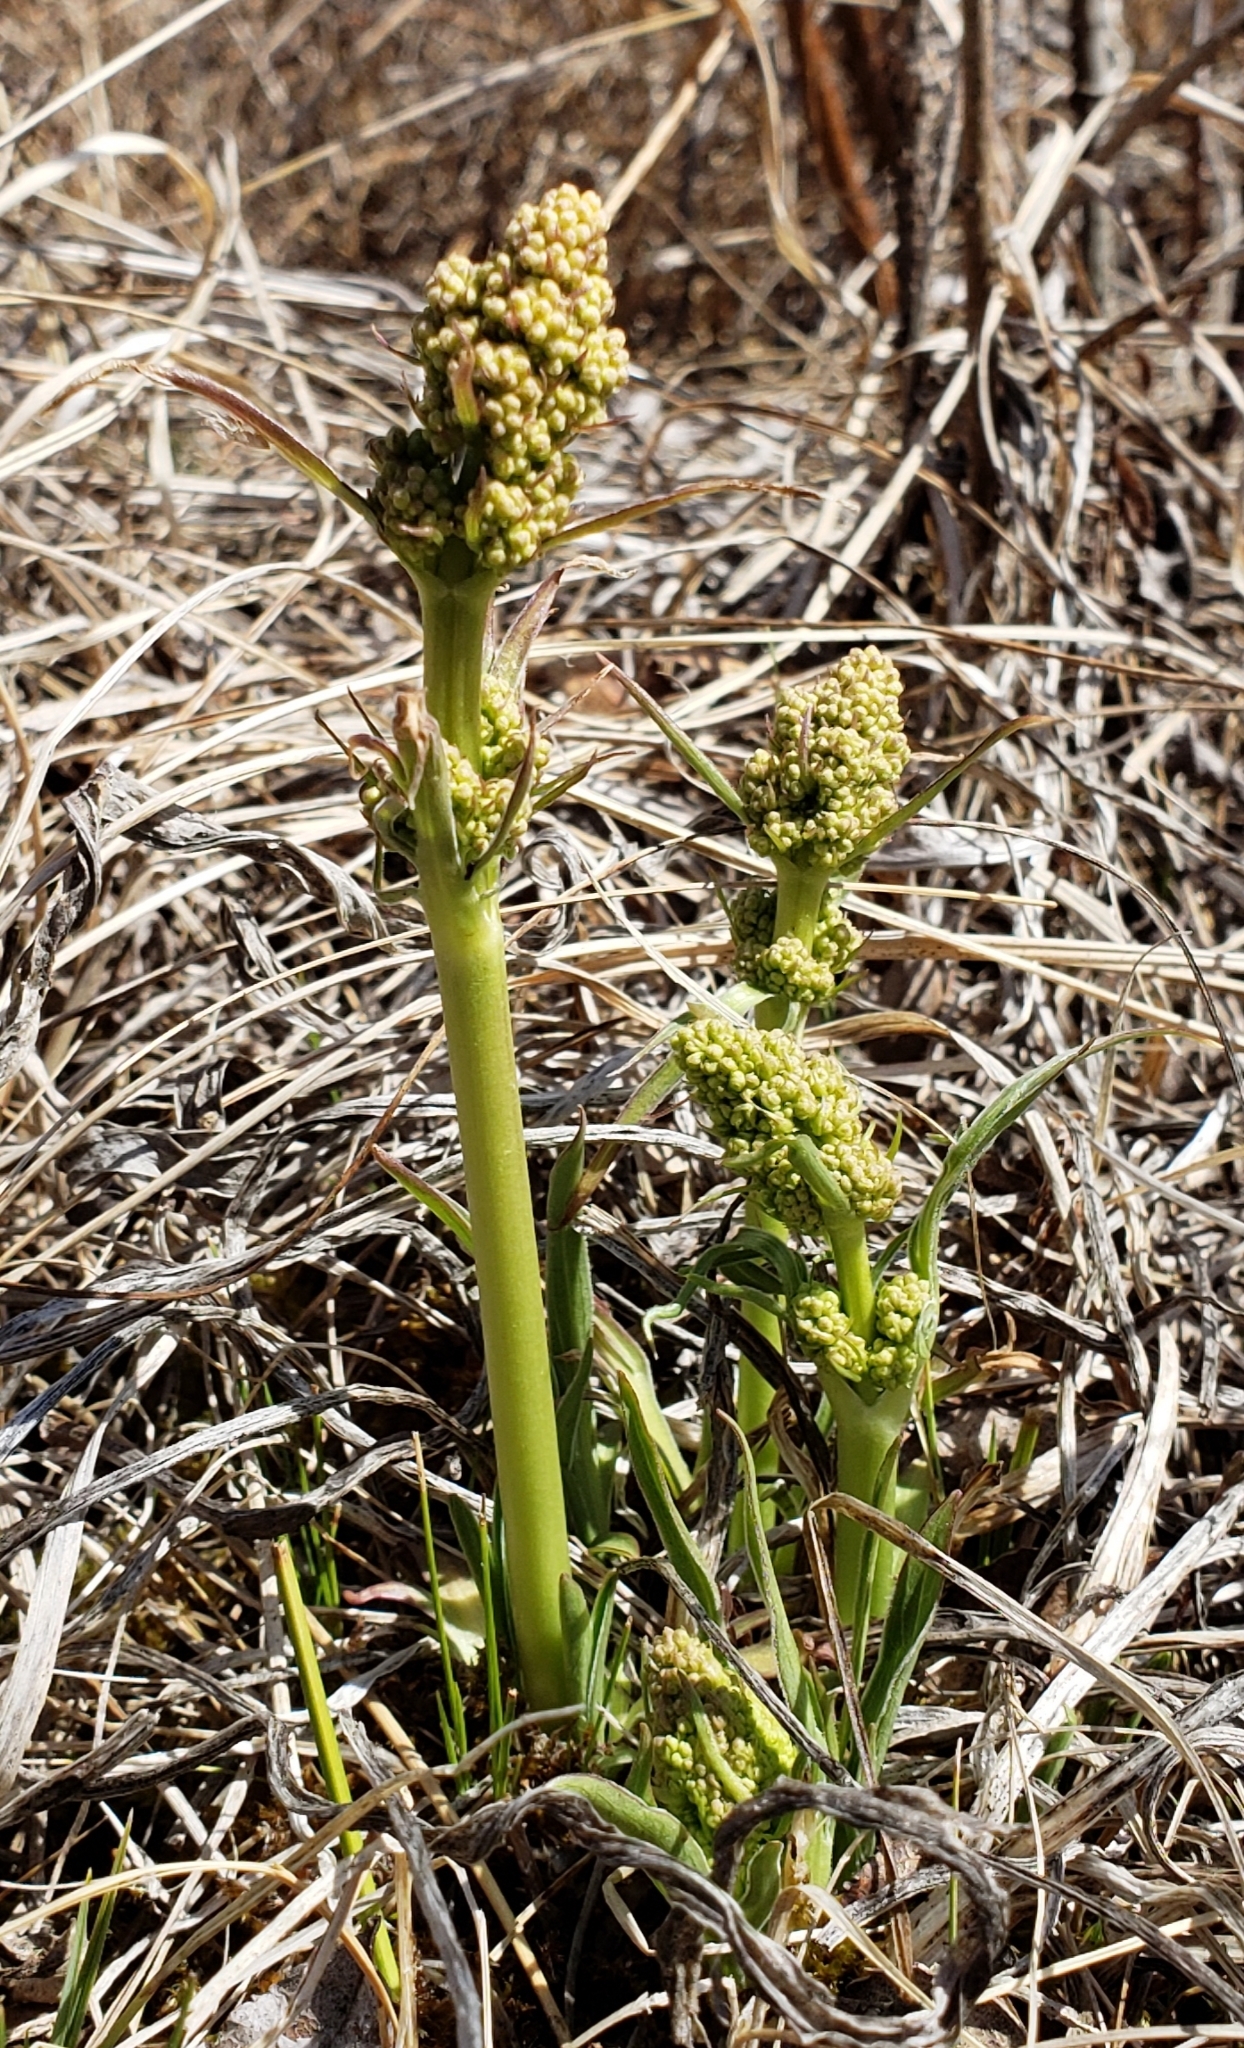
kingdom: Plantae
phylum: Tracheophyta
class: Magnoliopsida
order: Dipsacales
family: Caprifoliaceae
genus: Valeriana
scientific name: Valeriana edulis
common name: Taproot valerian
